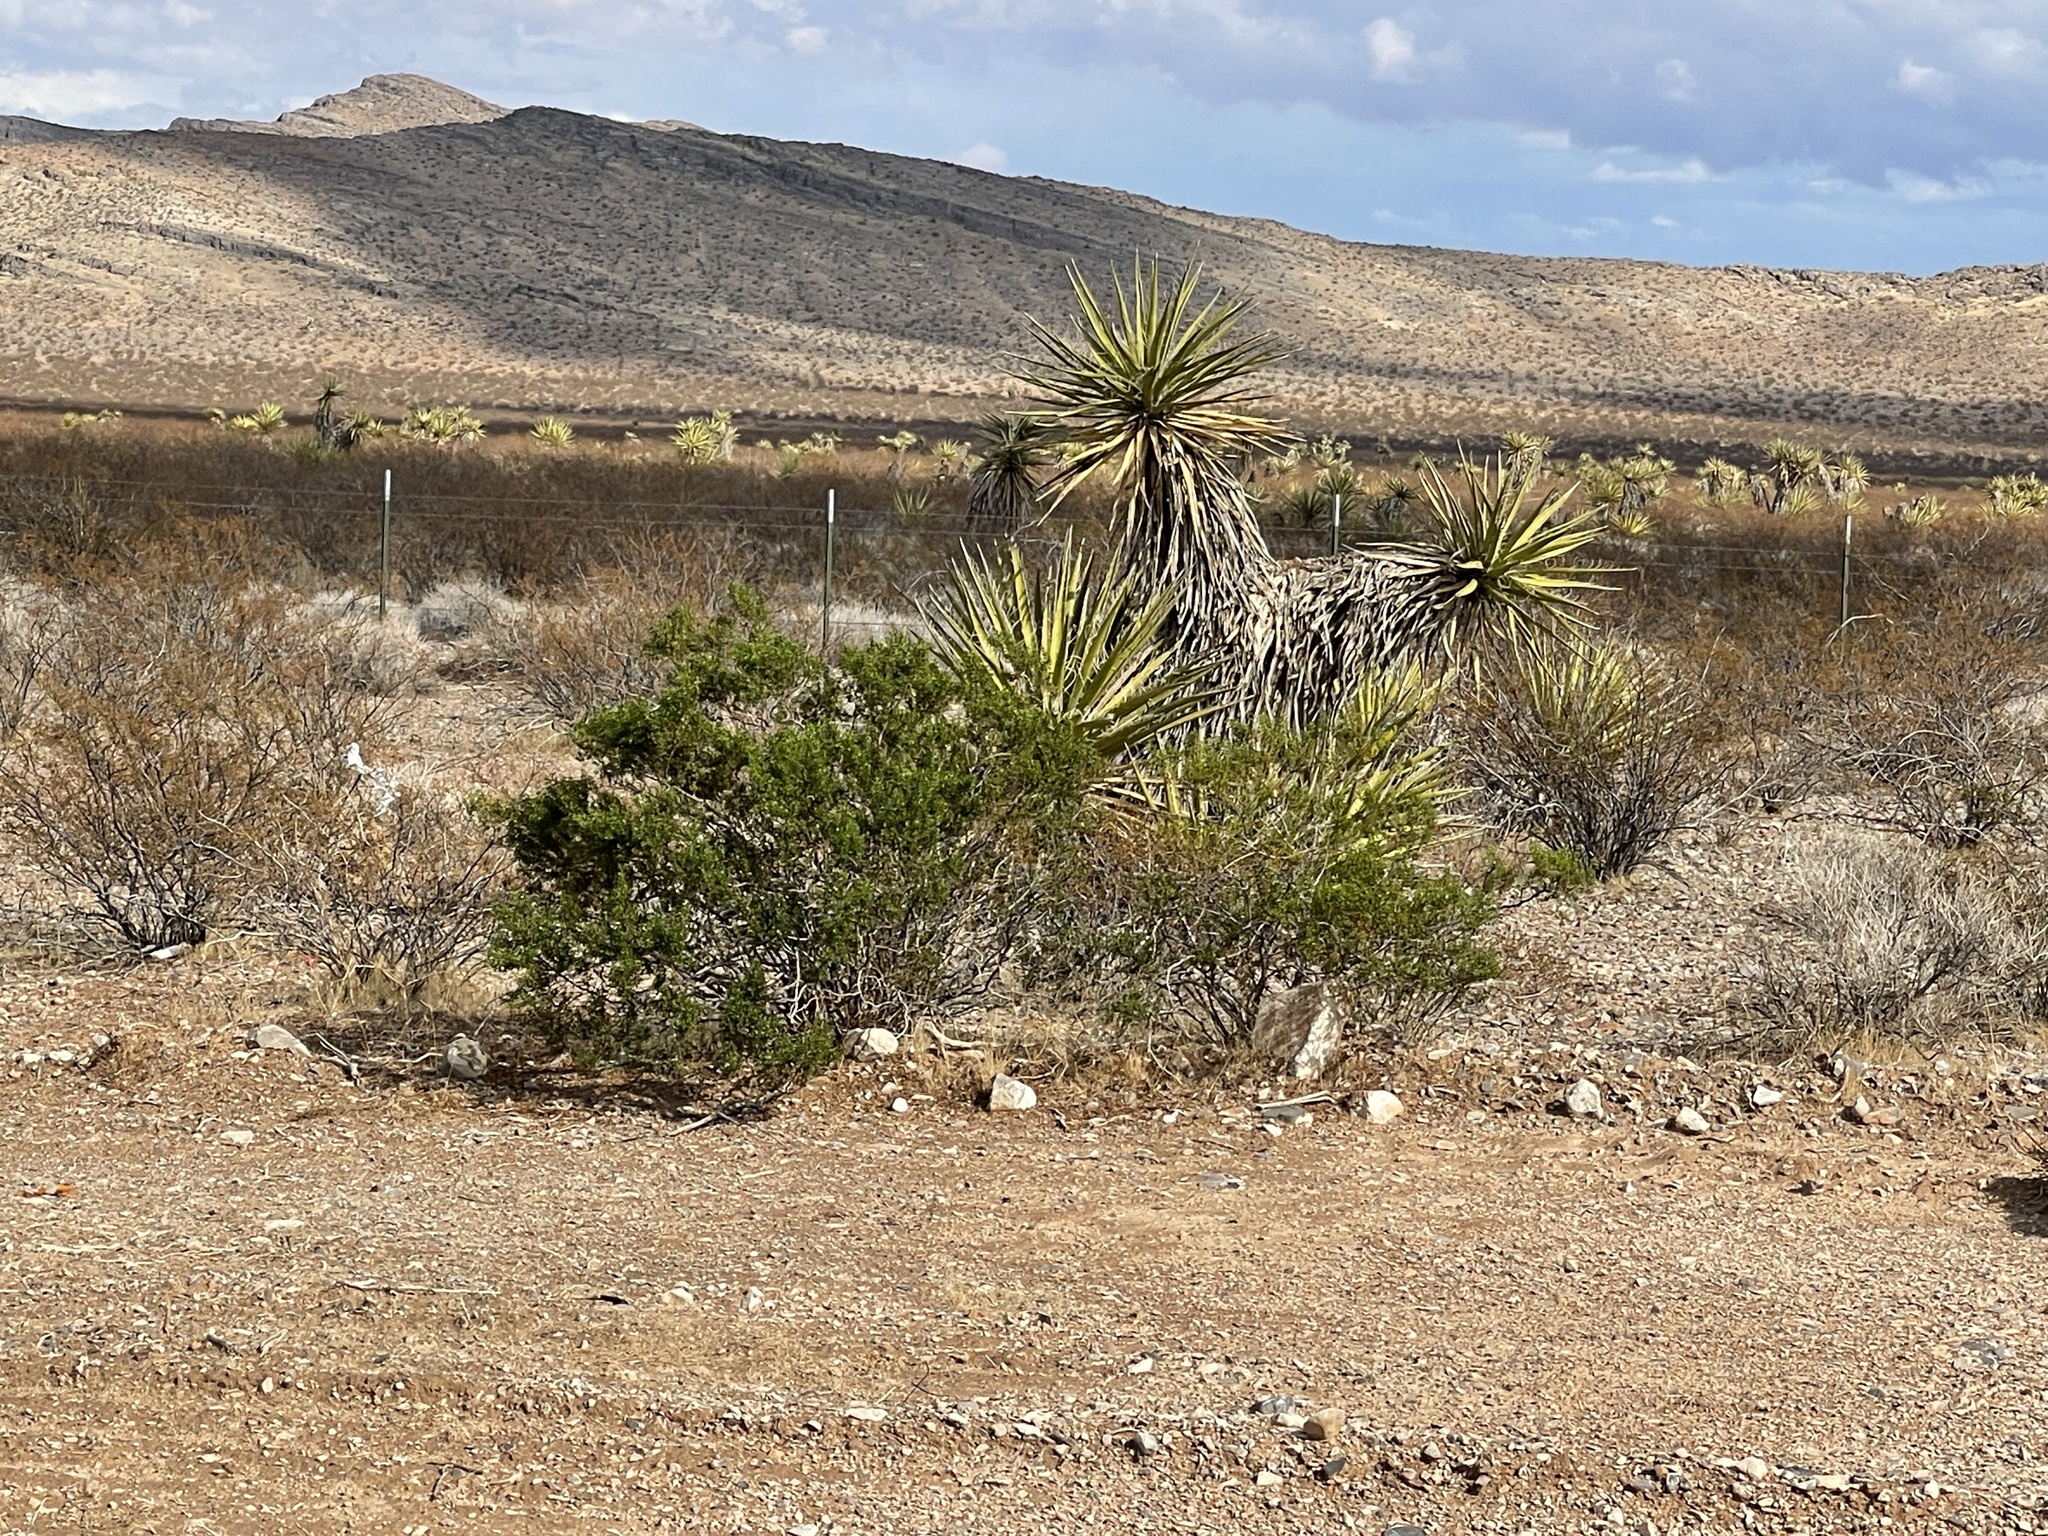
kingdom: Plantae
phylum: Tracheophyta
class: Magnoliopsida
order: Zygophyllales
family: Zygophyllaceae
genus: Larrea
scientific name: Larrea tridentata
